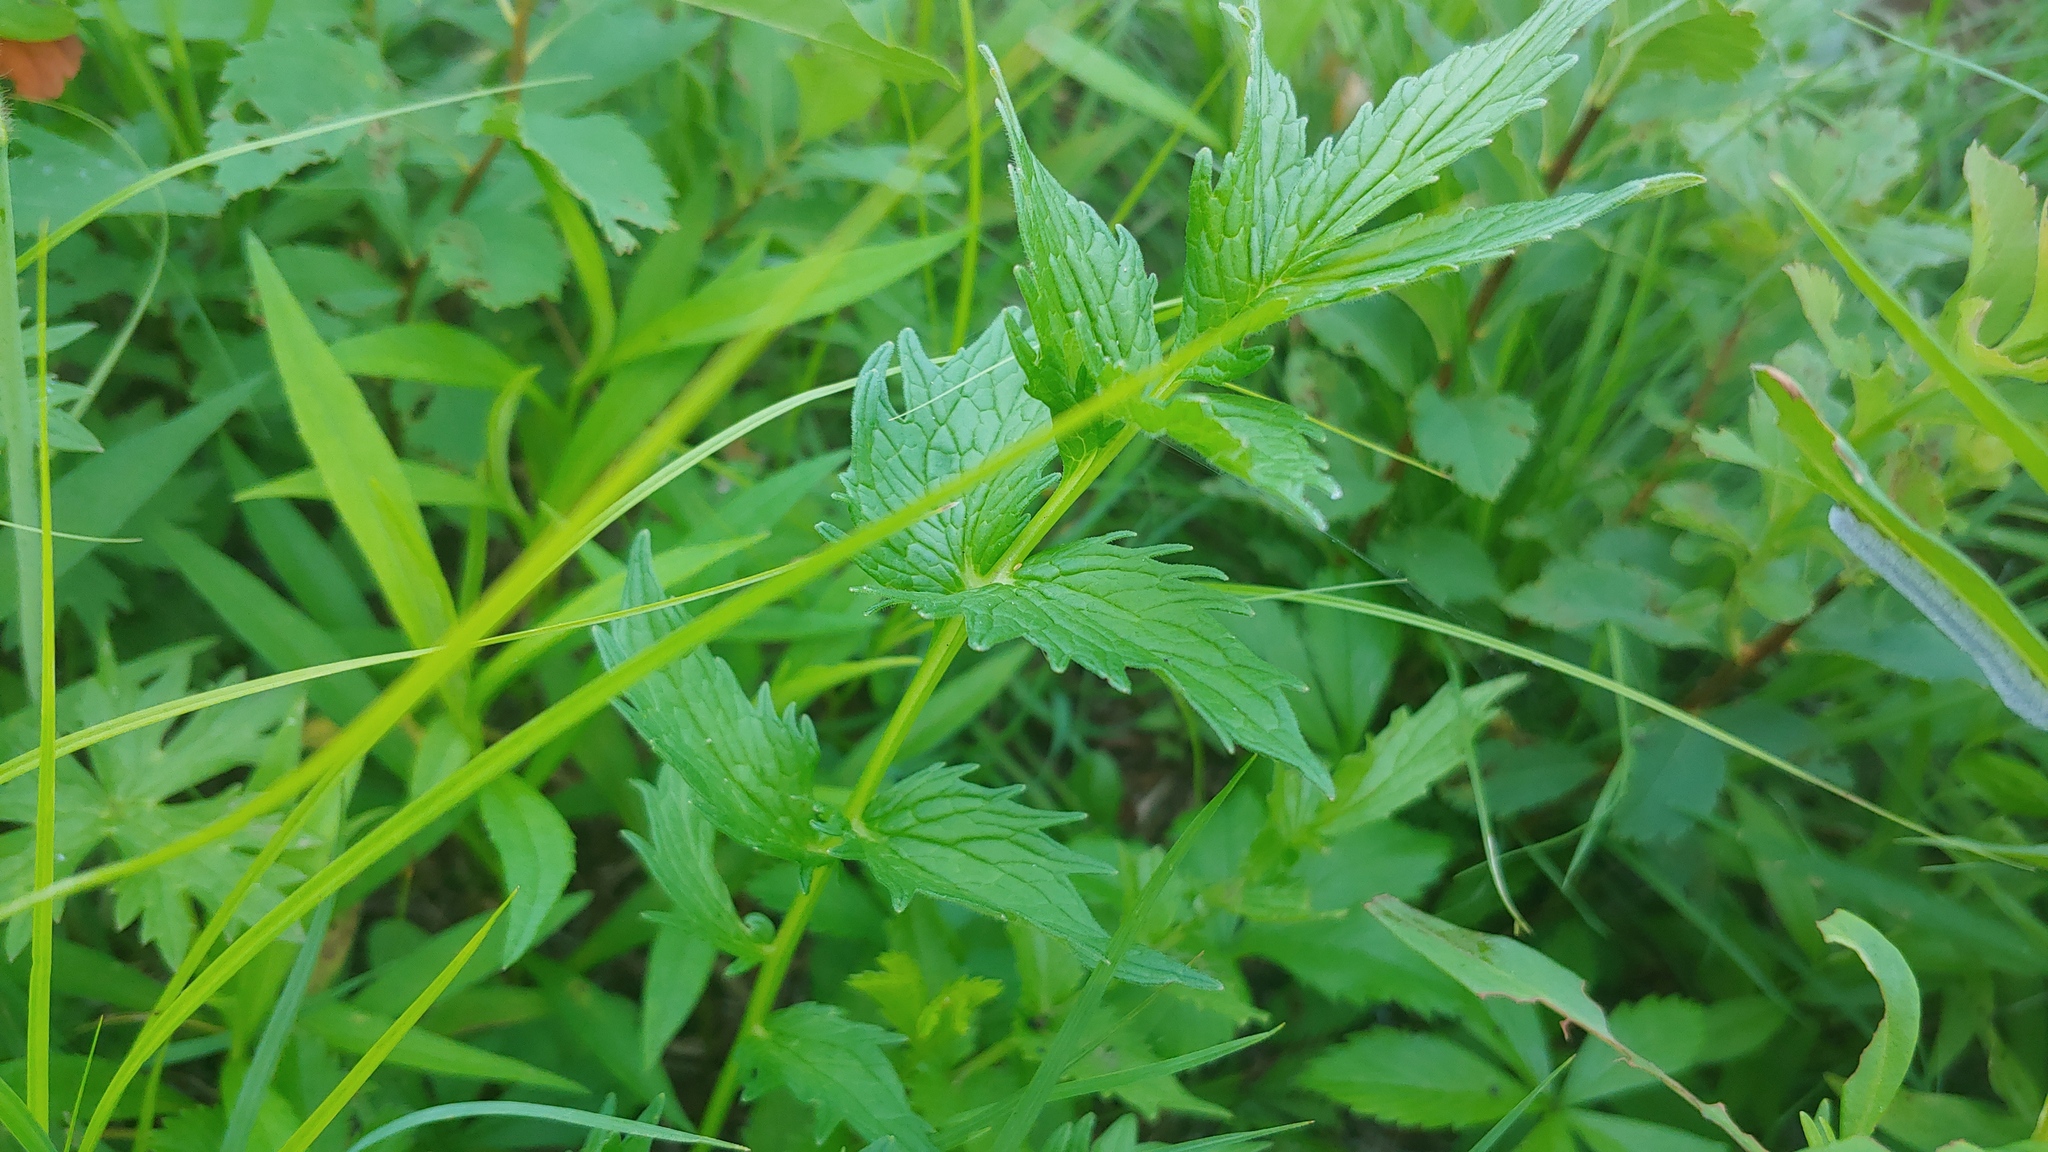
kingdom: Plantae
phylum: Tracheophyta
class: Magnoliopsida
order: Dipsacales
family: Caprifoliaceae
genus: Valeriana
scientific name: Valeriana officinalis
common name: Common valerian
